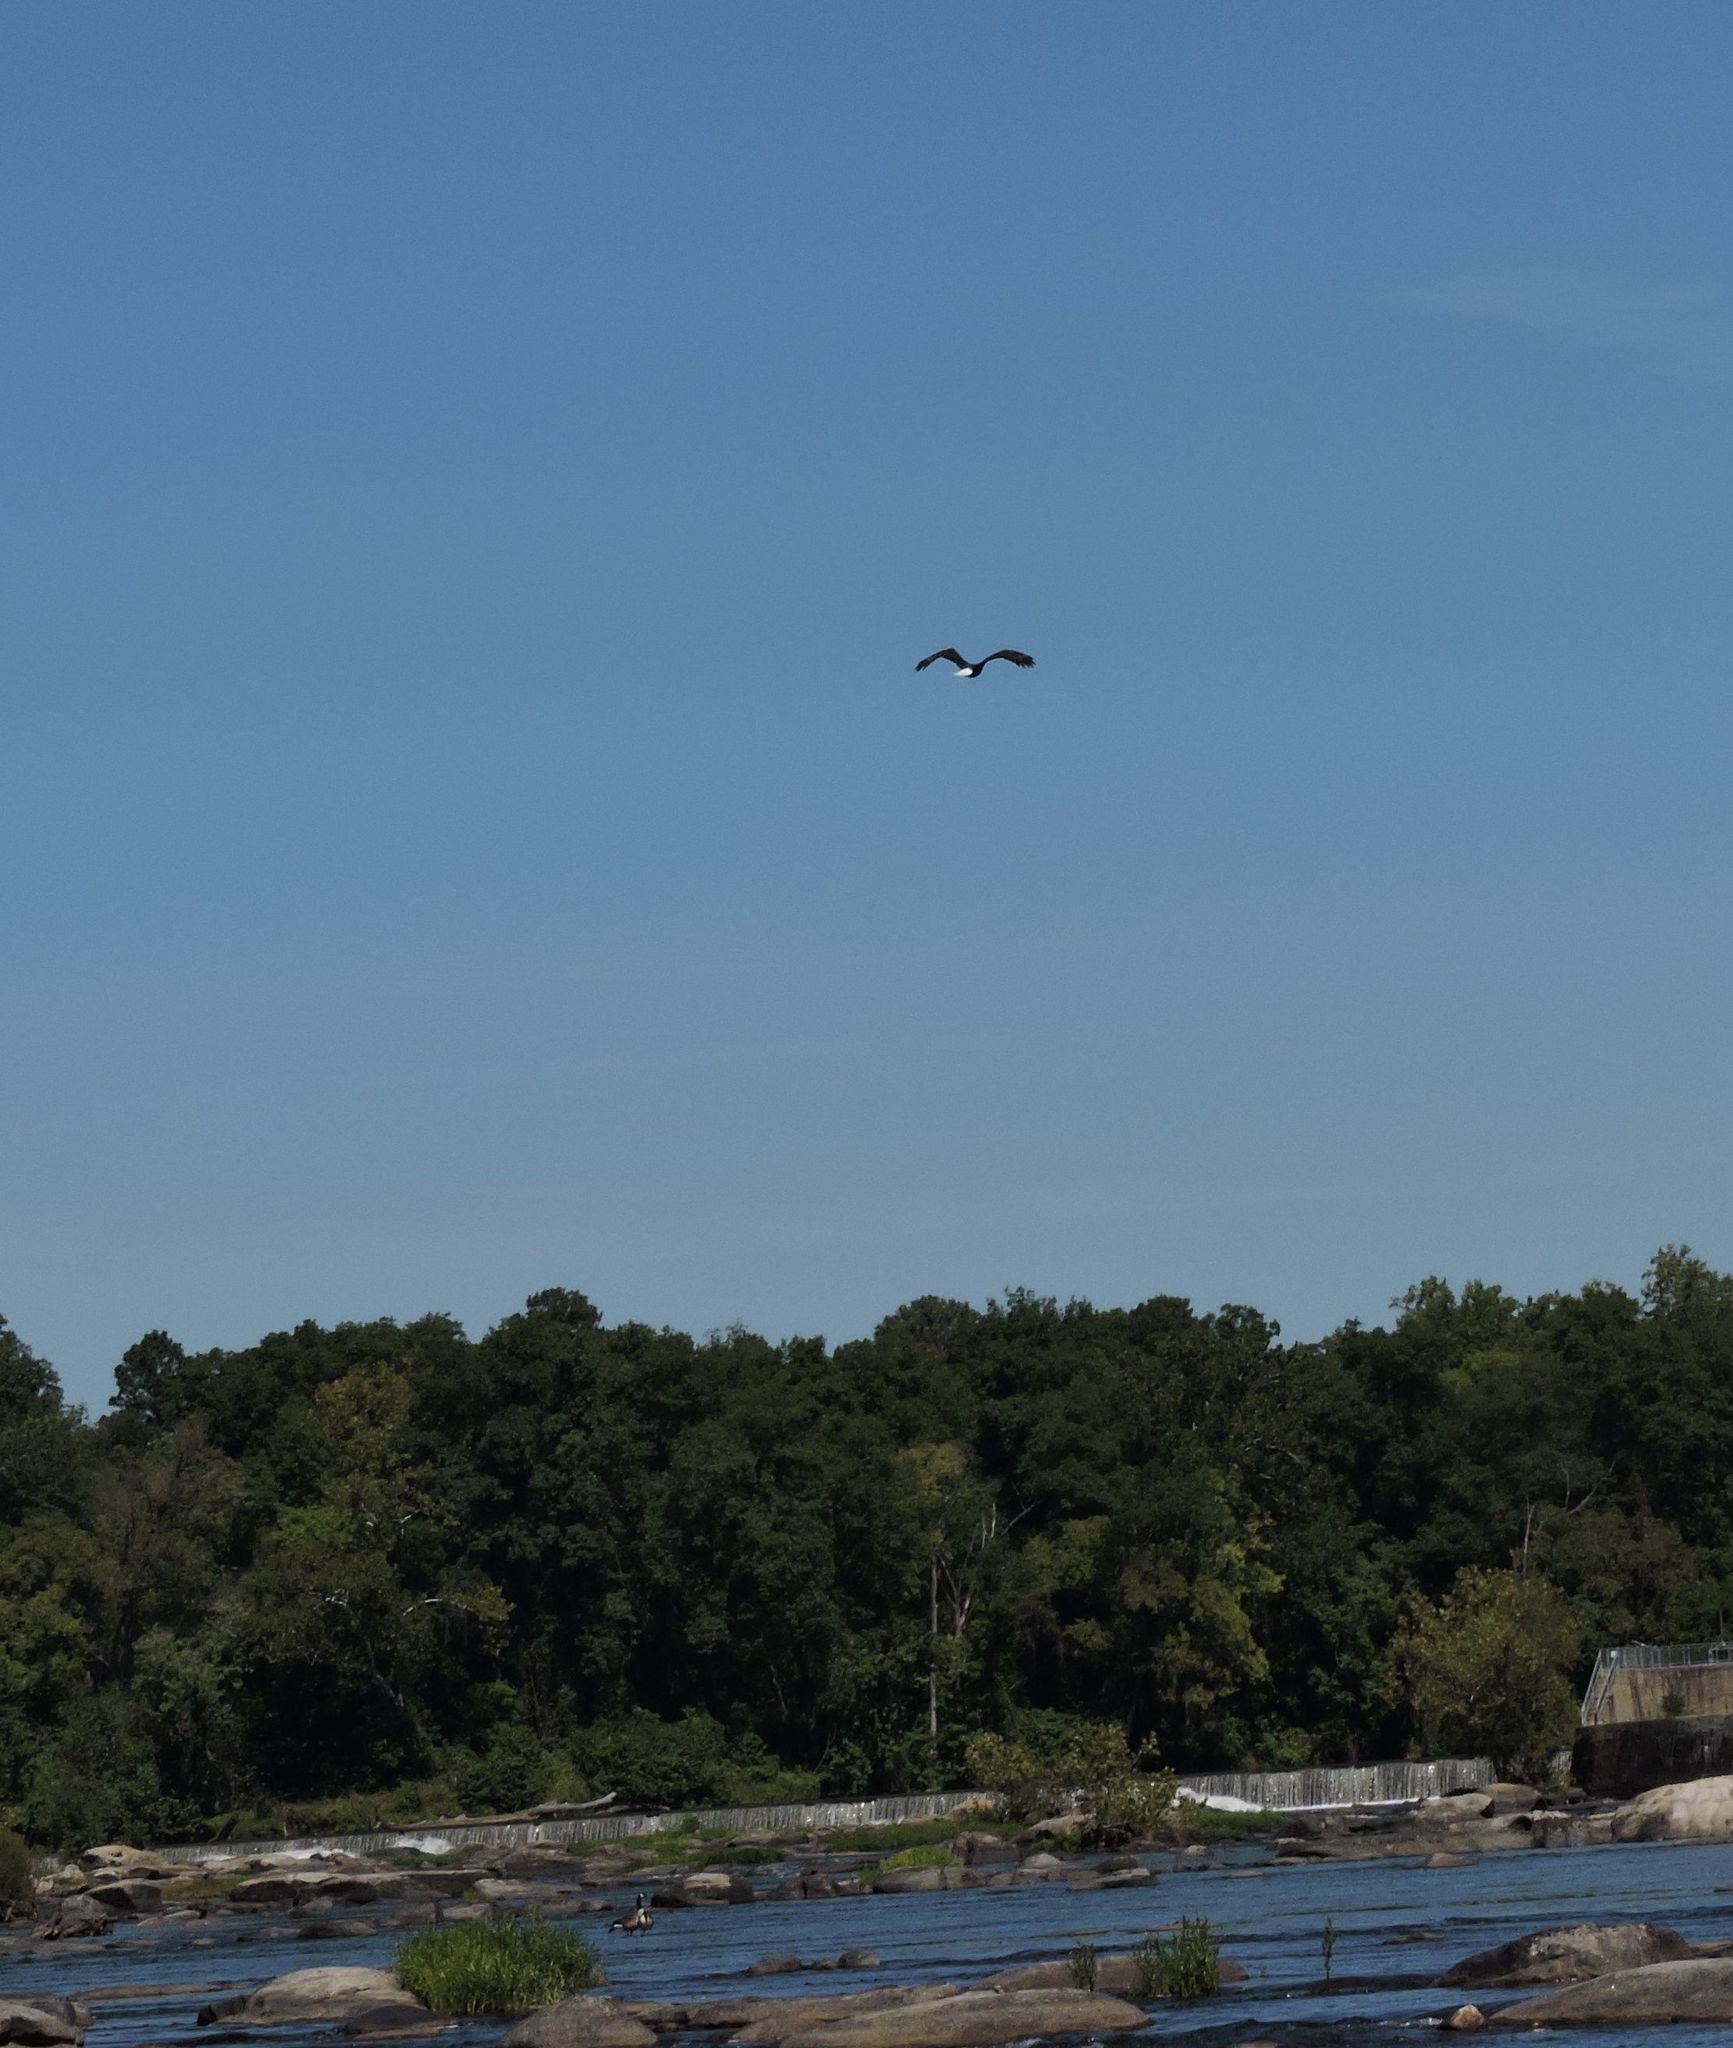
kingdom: Animalia
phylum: Chordata
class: Aves
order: Accipitriformes
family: Accipitridae
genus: Haliaeetus
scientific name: Haliaeetus leucocephalus
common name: Bald eagle
